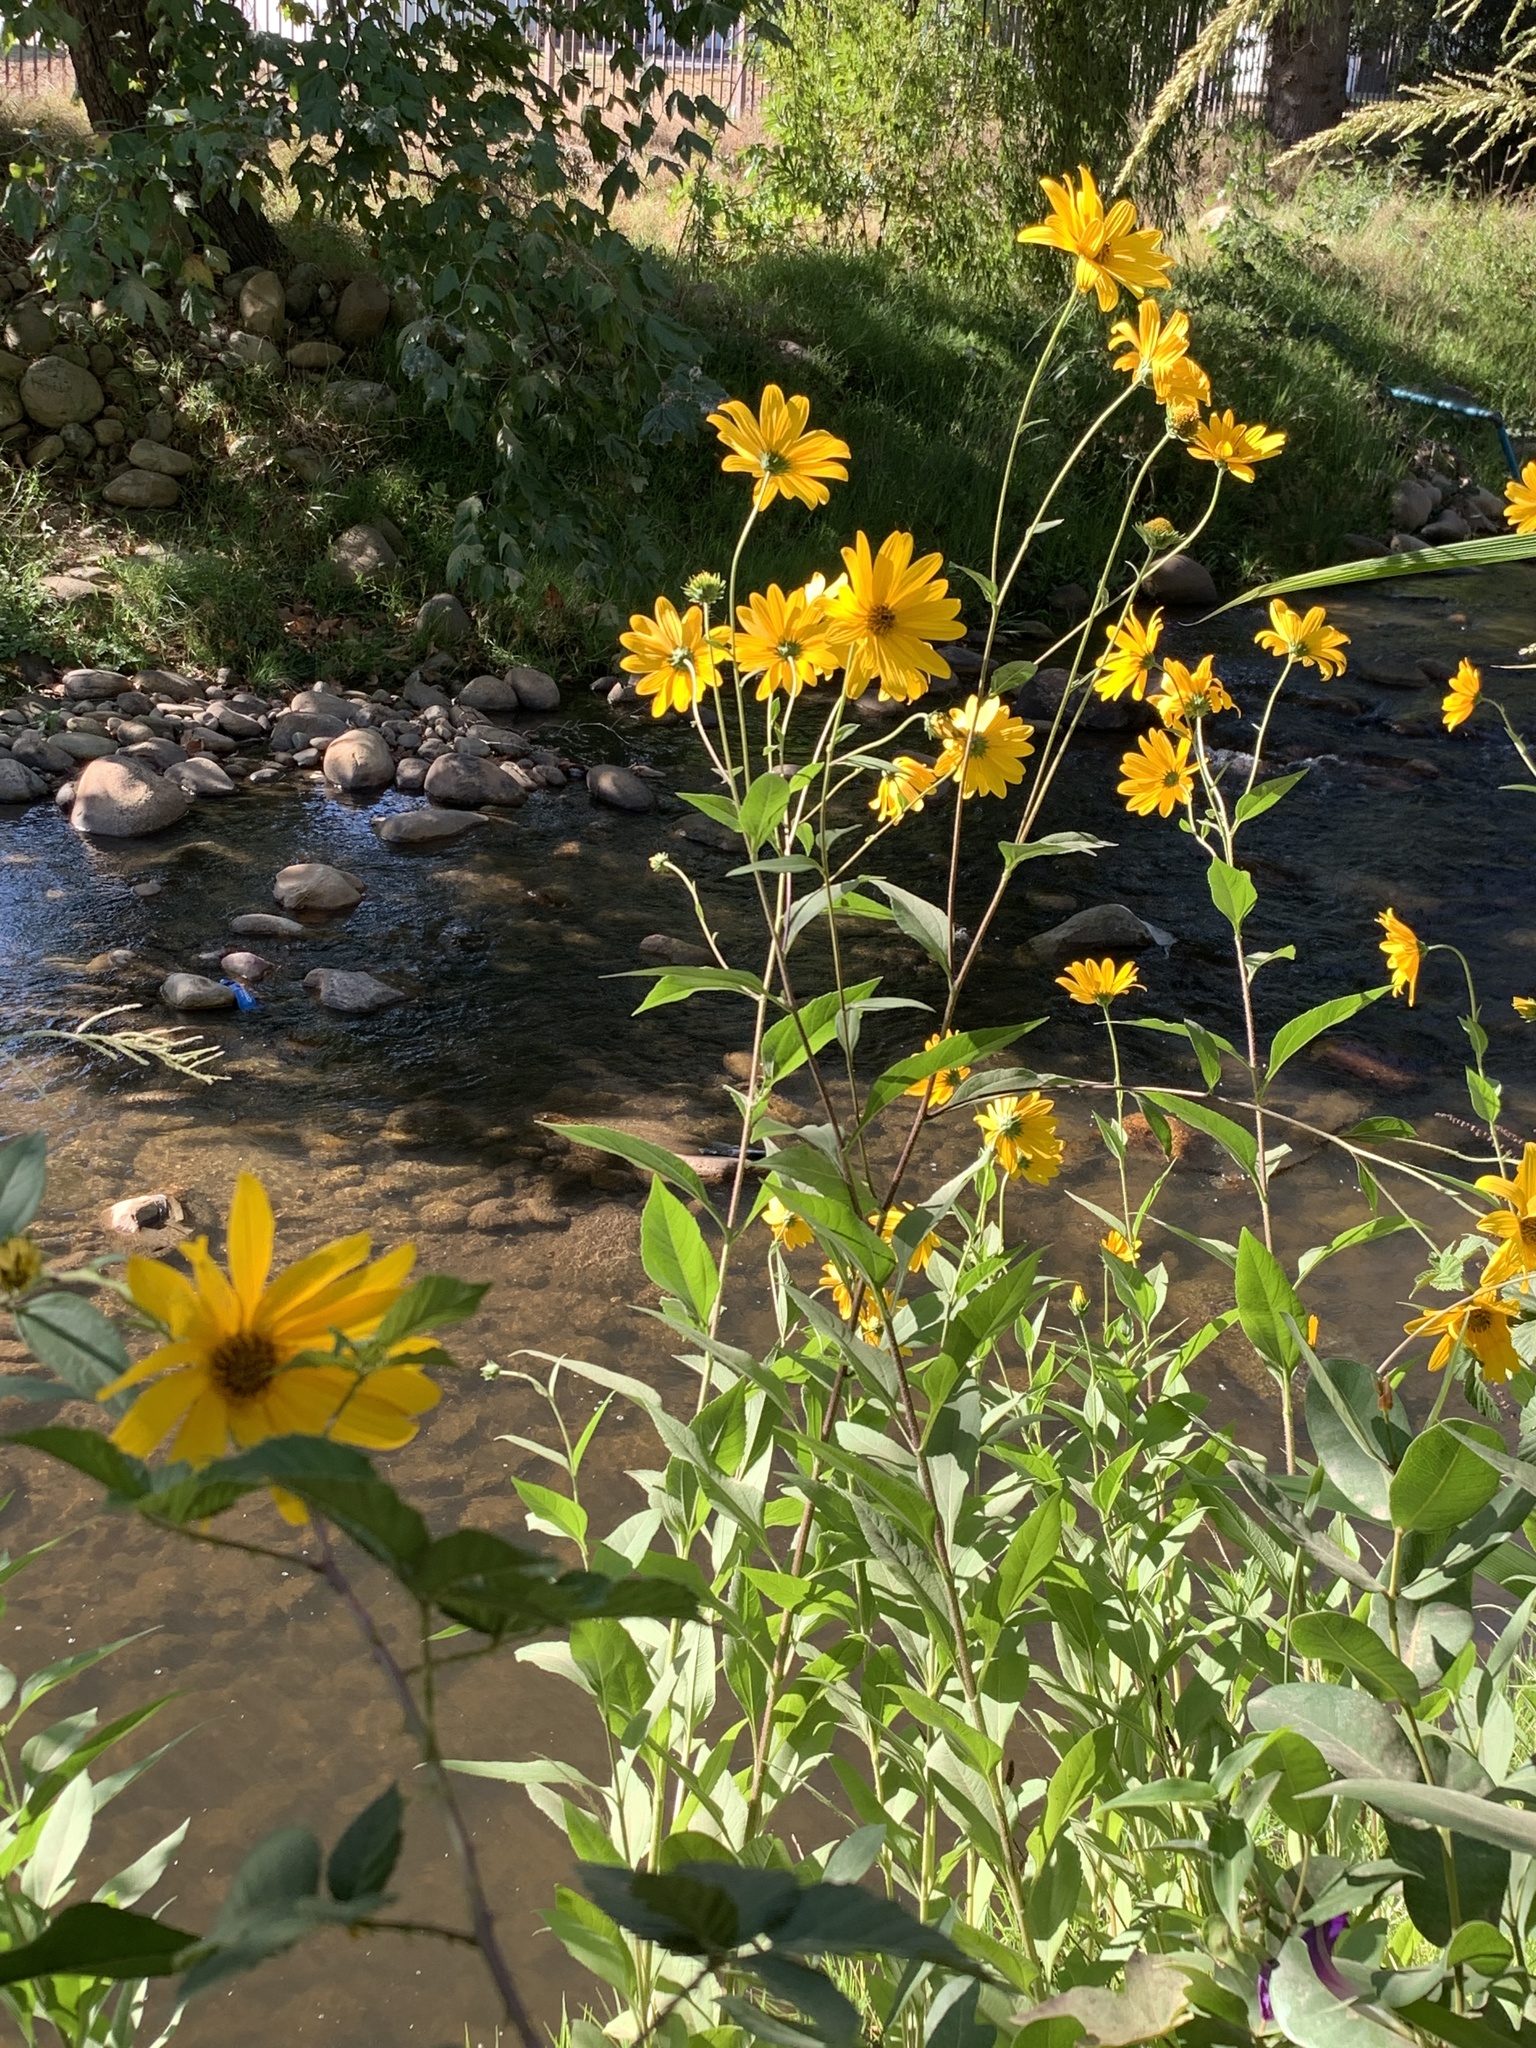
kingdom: Plantae
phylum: Tracheophyta
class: Magnoliopsida
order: Asterales
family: Asteraceae
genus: Helianthus
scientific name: Helianthus tuberosus
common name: Jerusalem artichoke
